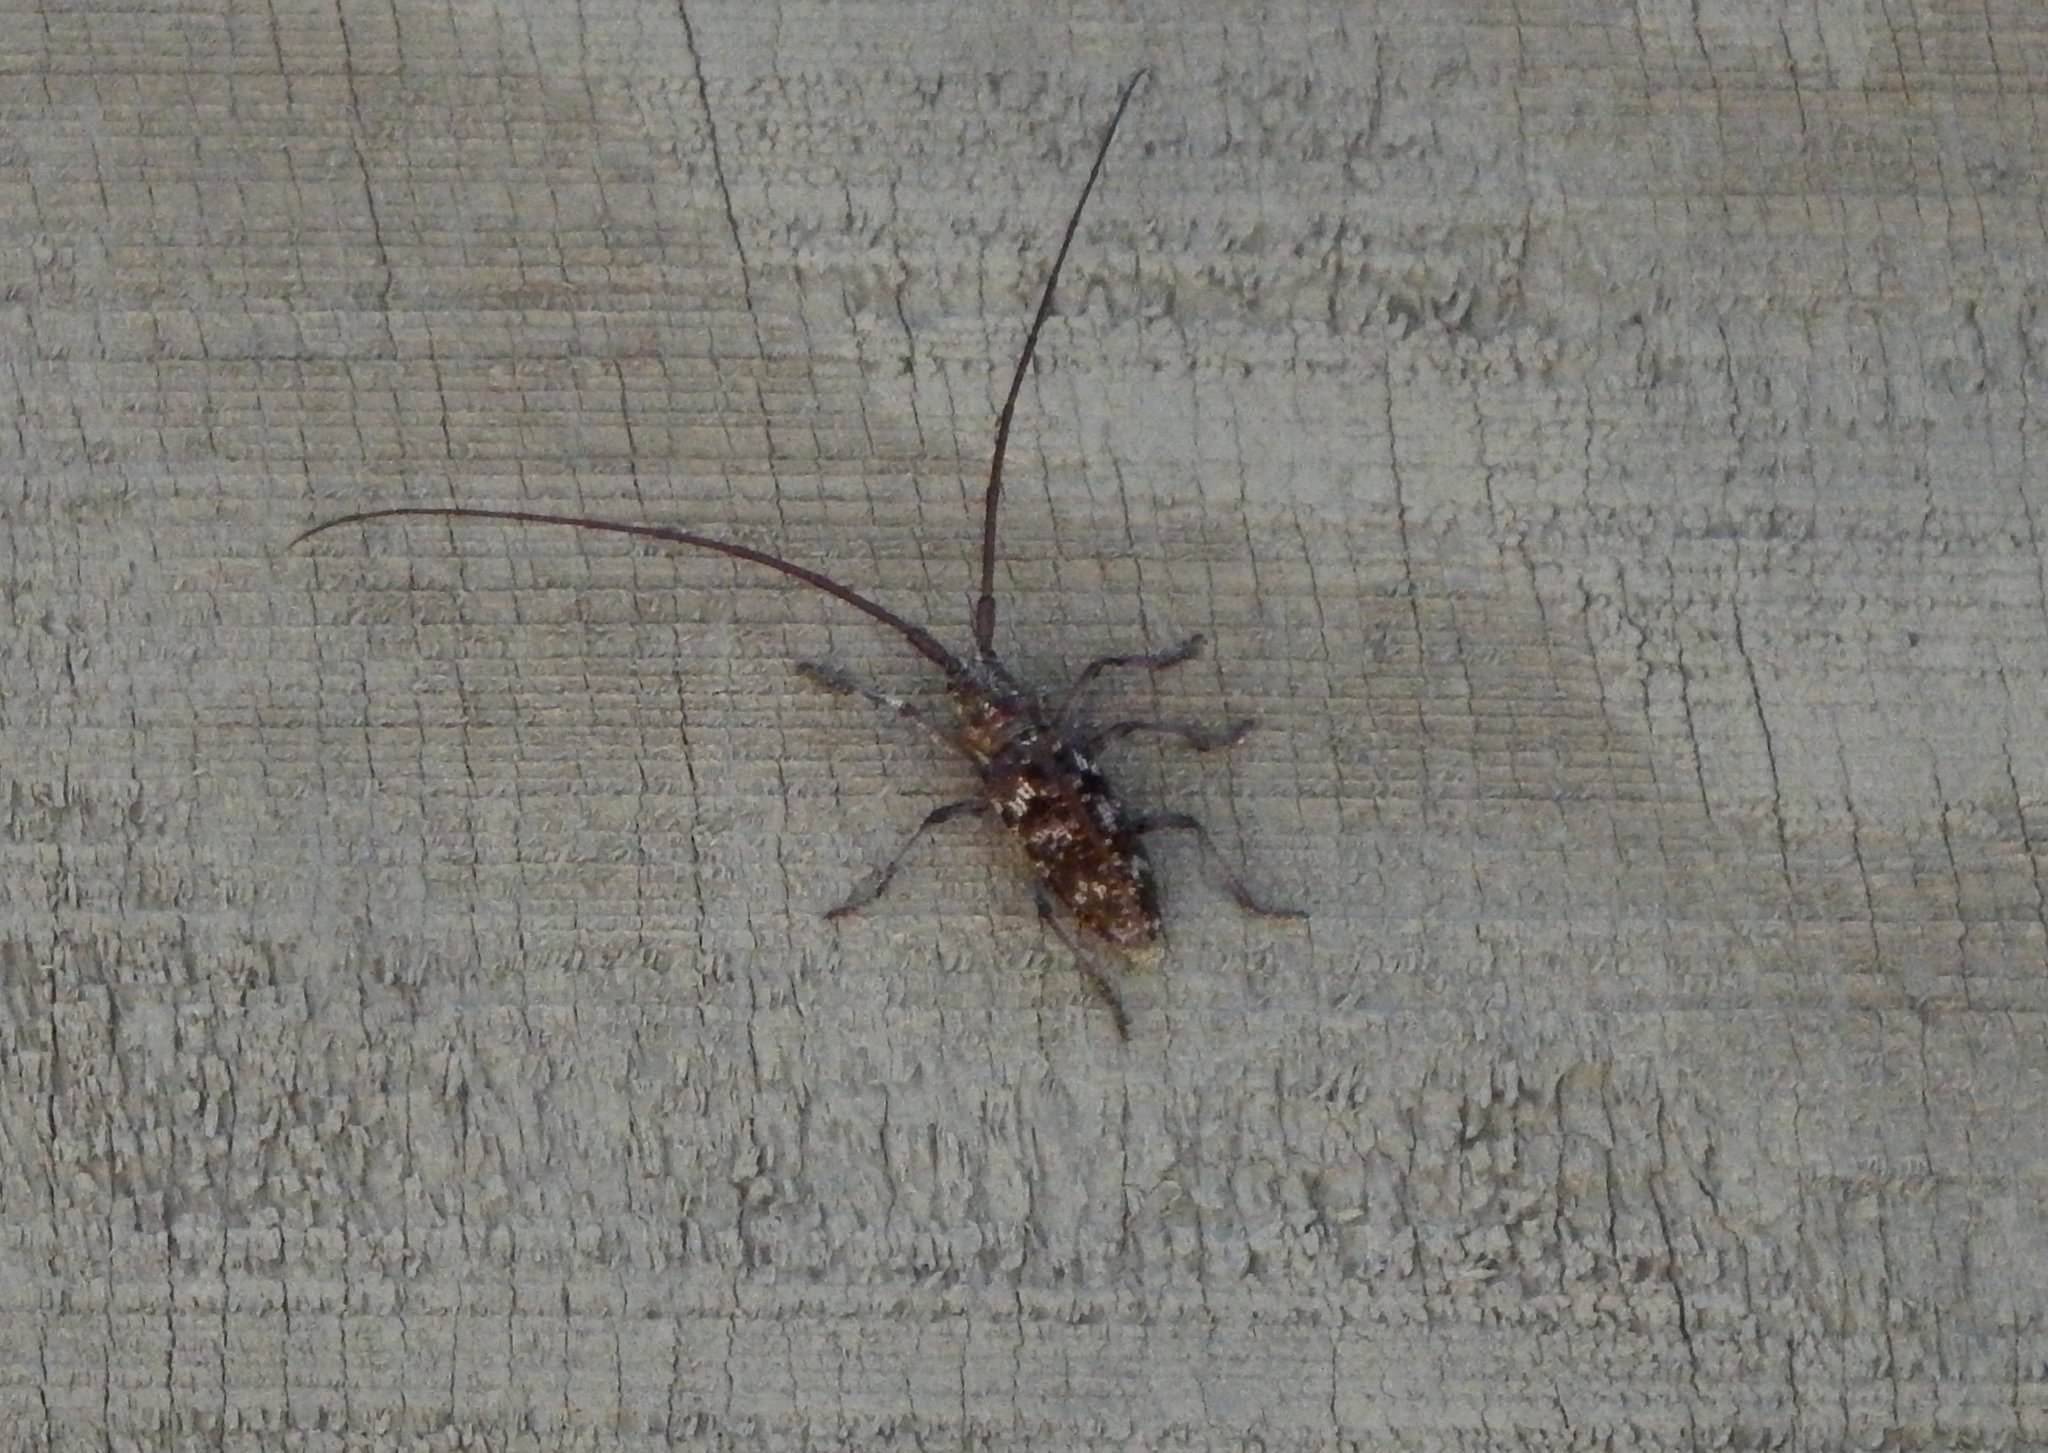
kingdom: Animalia
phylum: Arthropoda
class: Insecta
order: Coleoptera
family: Cerambycidae
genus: Monochamus
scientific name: Monochamus obtusus
